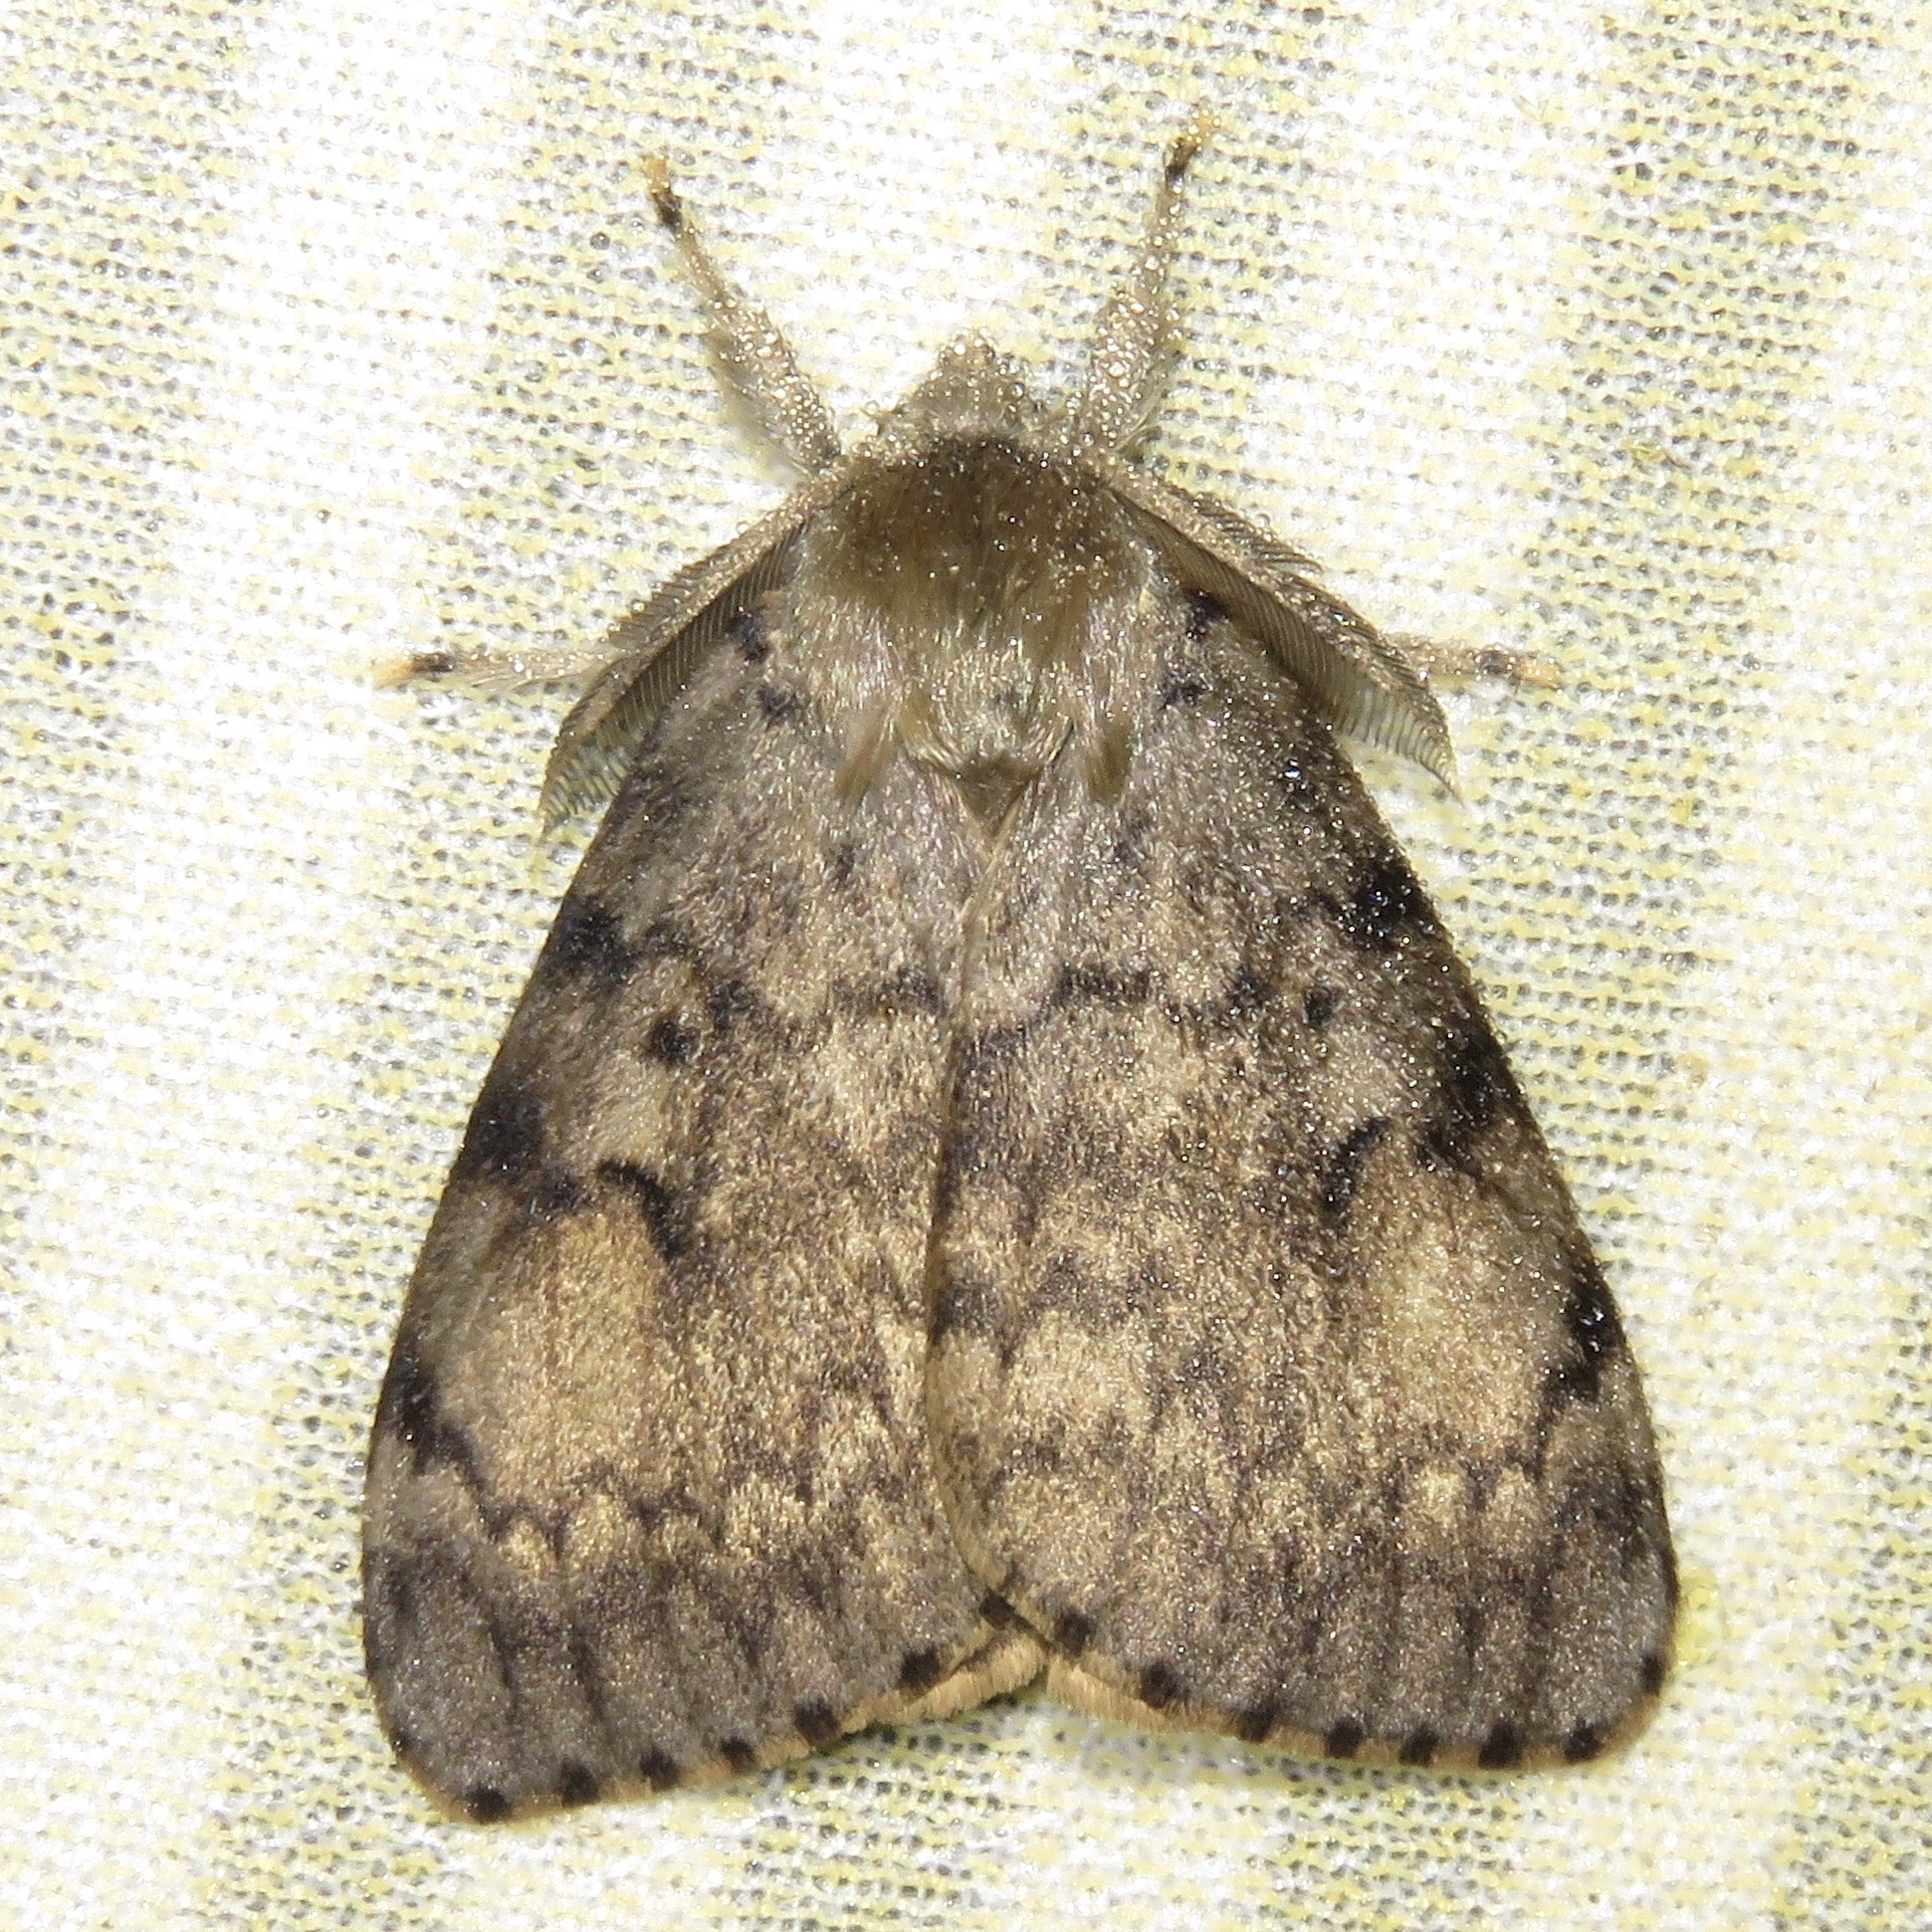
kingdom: Animalia
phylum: Arthropoda
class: Insecta
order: Lepidoptera
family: Erebidae
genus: Lymantria
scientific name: Lymantria dispar
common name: Gypsy moth
